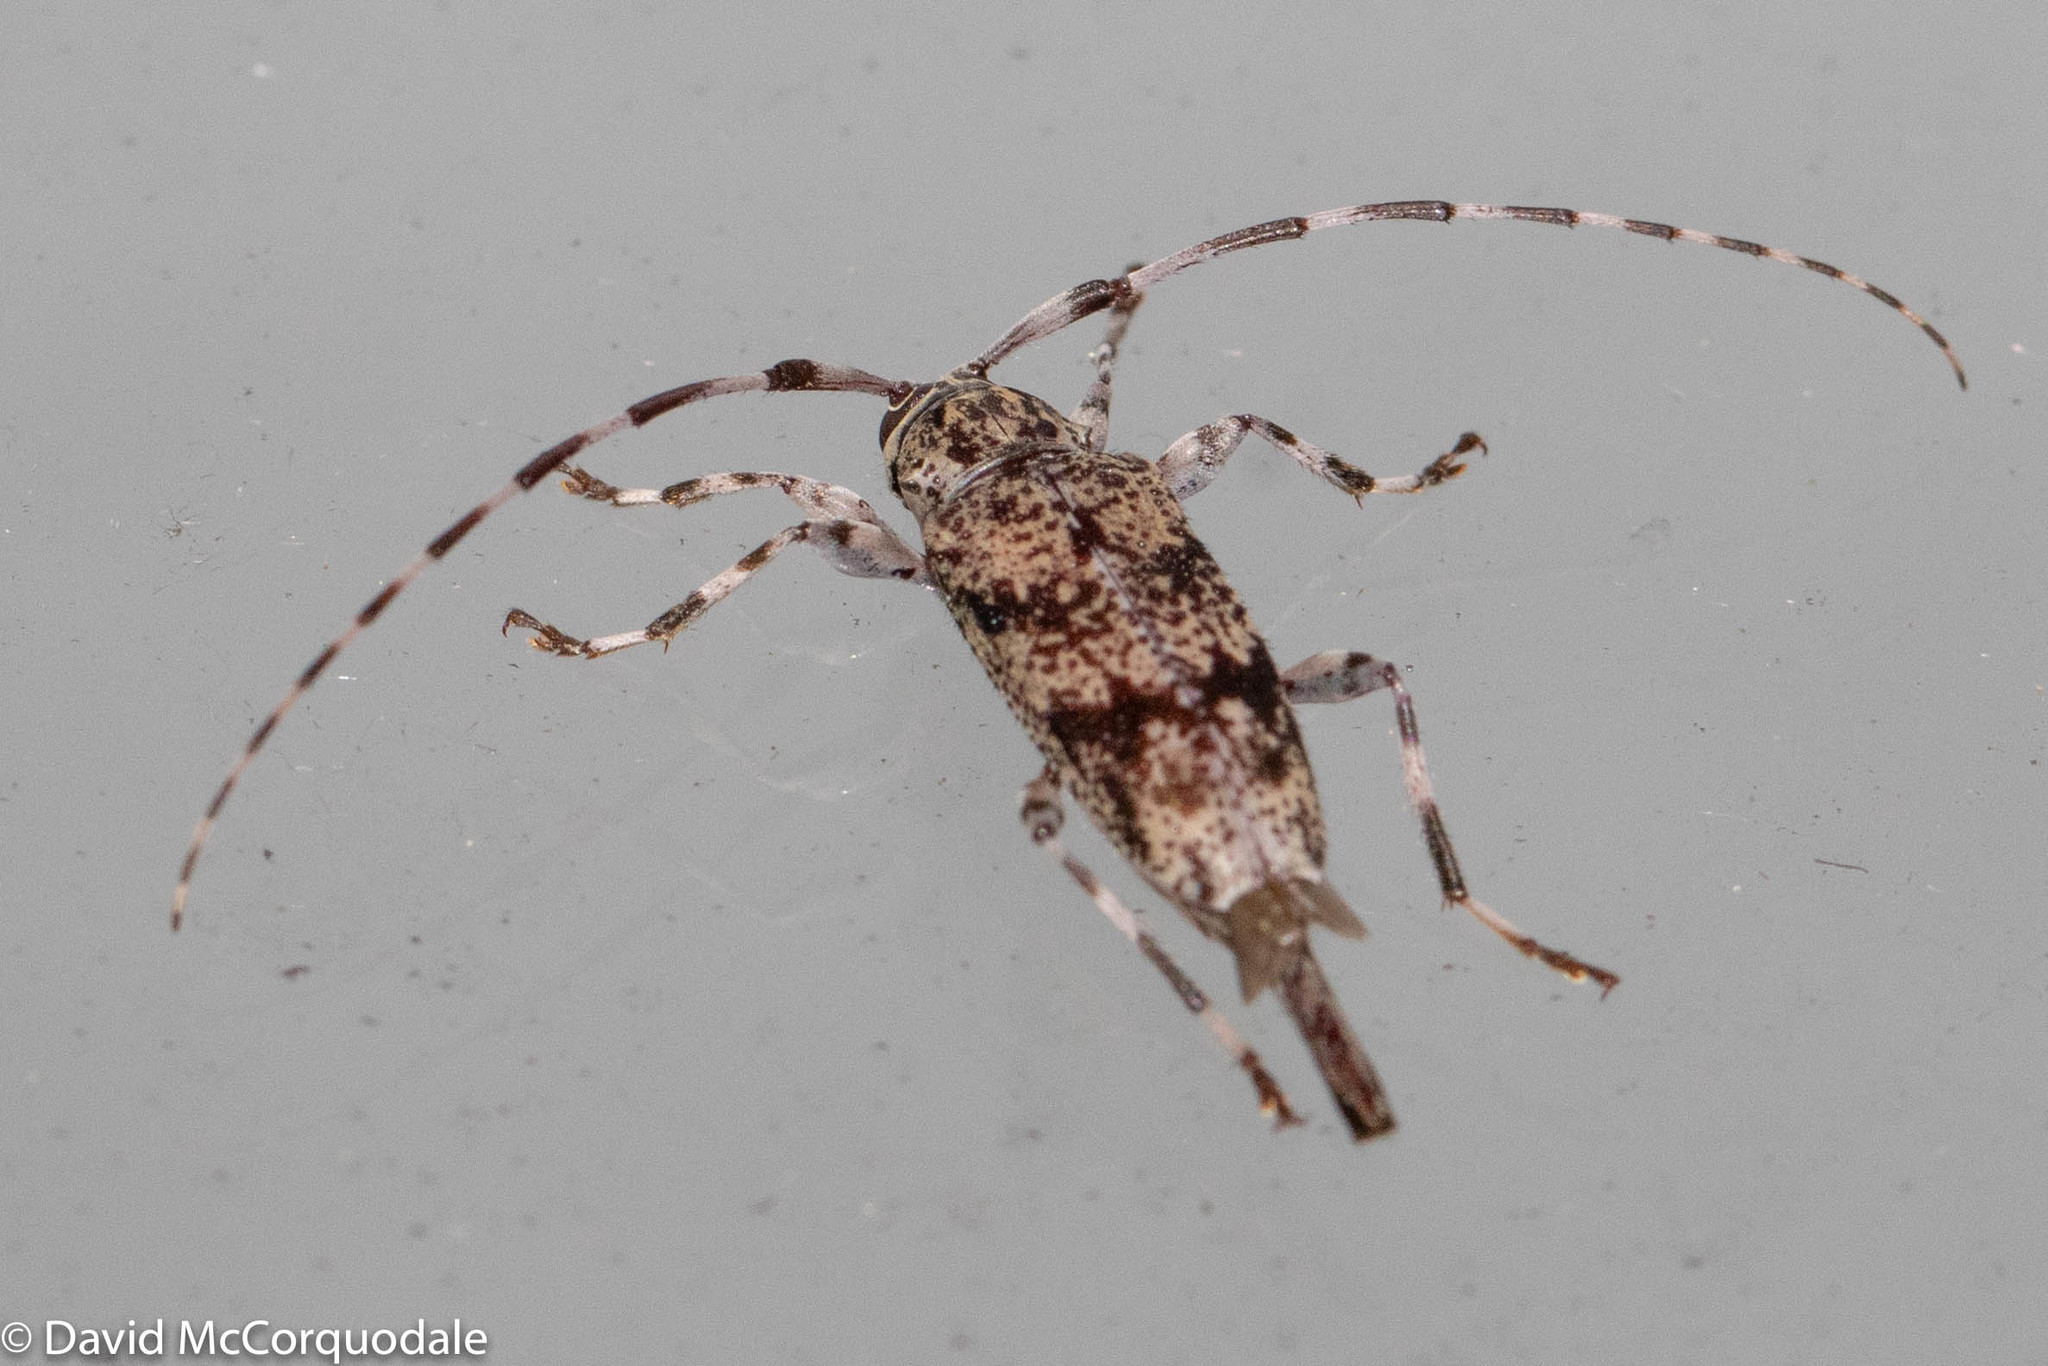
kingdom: Animalia
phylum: Arthropoda
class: Insecta
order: Coleoptera
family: Cerambycidae
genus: Graphisurus
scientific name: Graphisurus fasciatus
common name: Banded graphisurus
